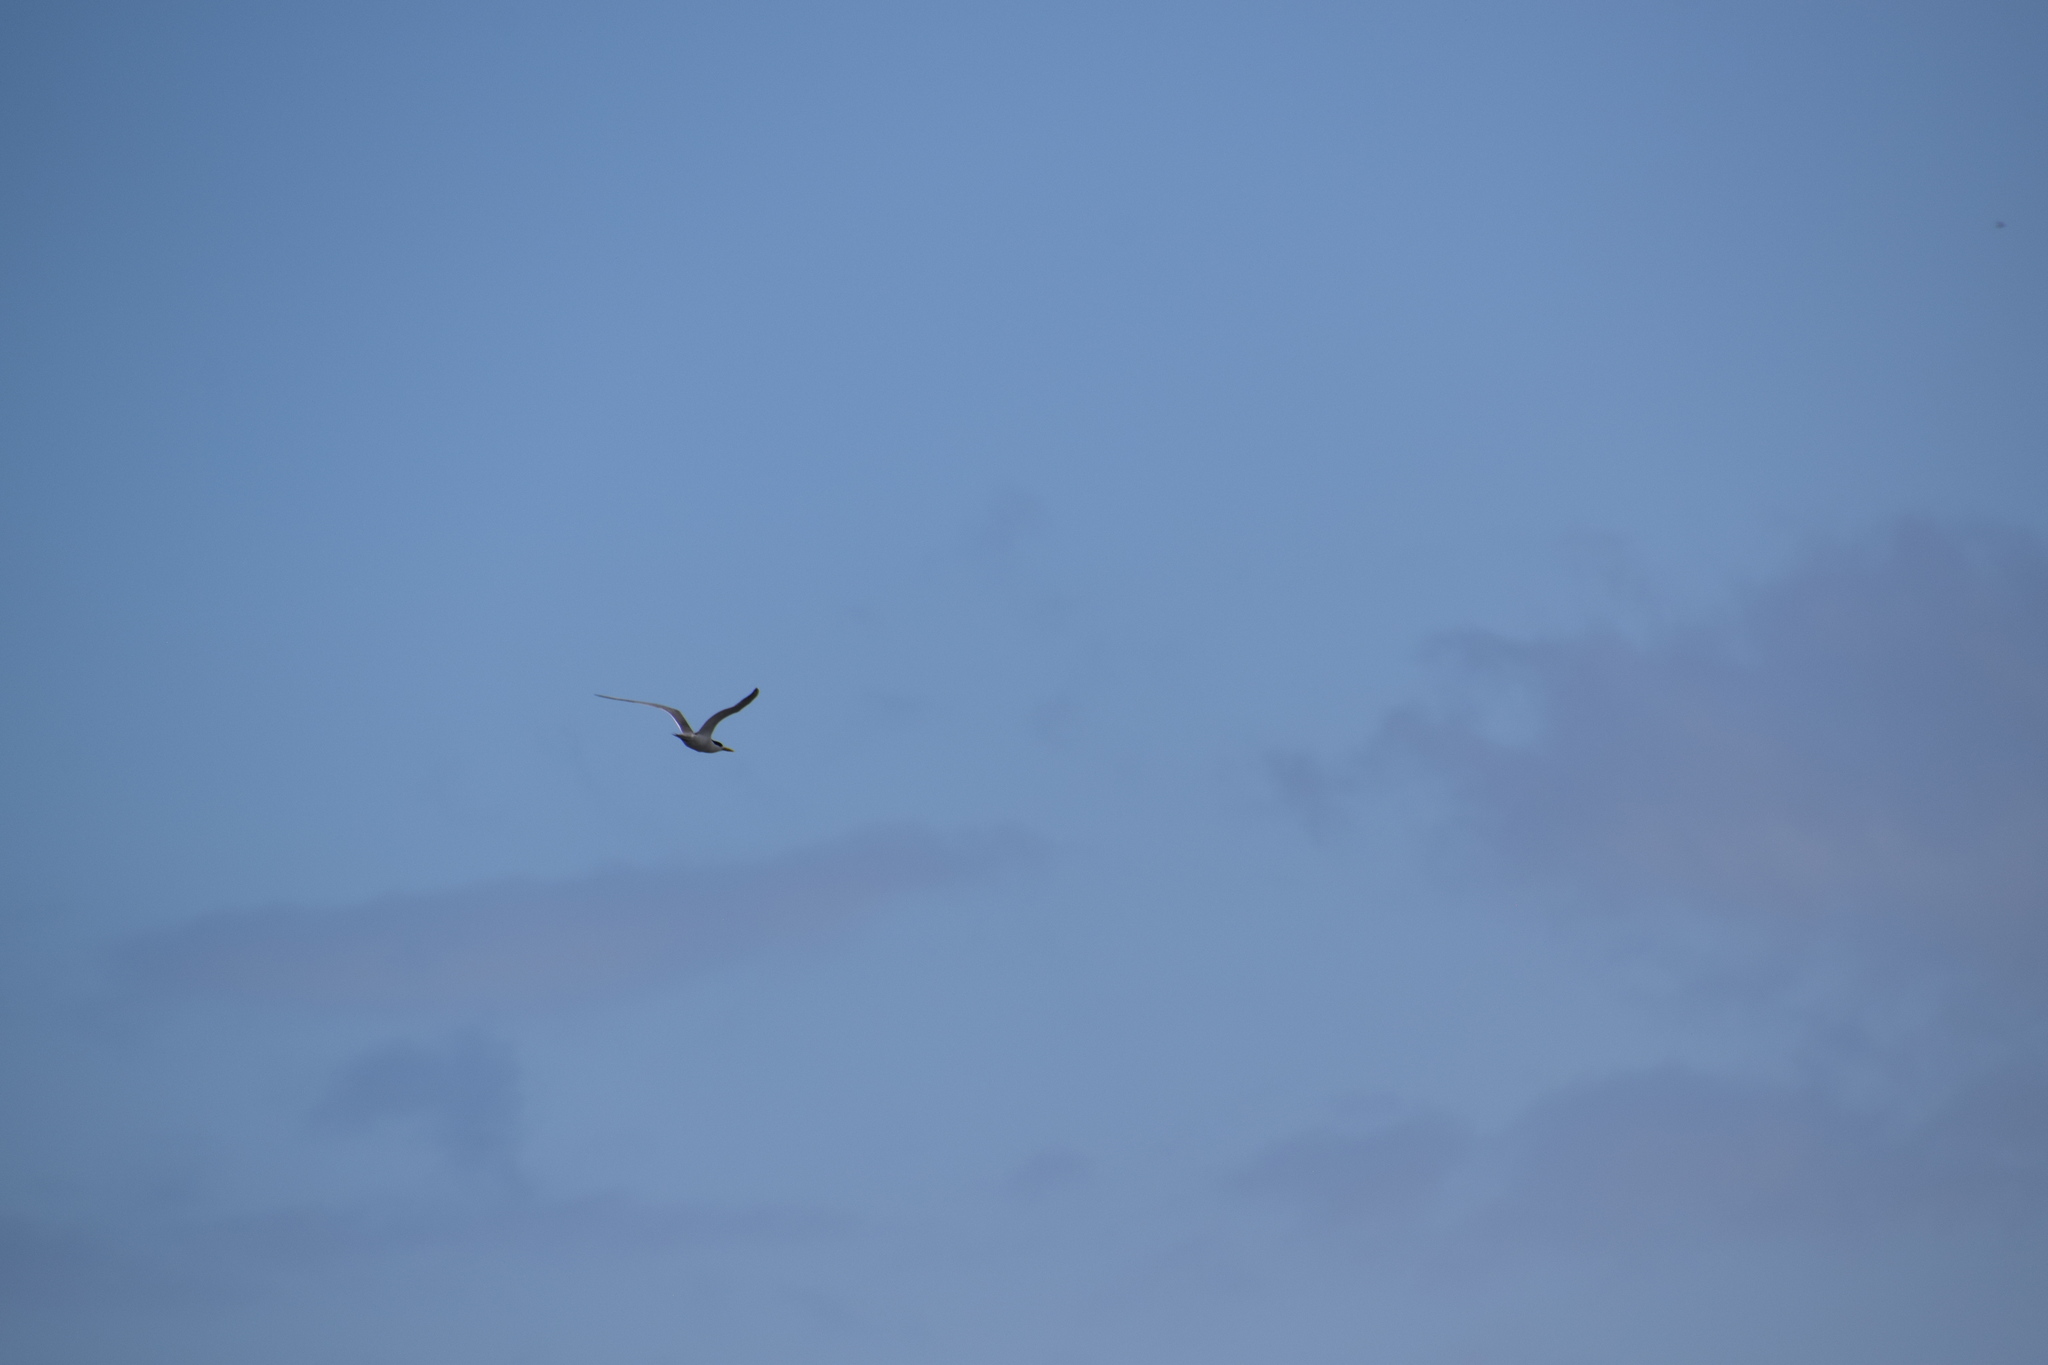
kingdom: Animalia
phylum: Chordata
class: Aves
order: Charadriiformes
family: Laridae
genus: Thalasseus
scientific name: Thalasseus bergii
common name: Greater crested tern
